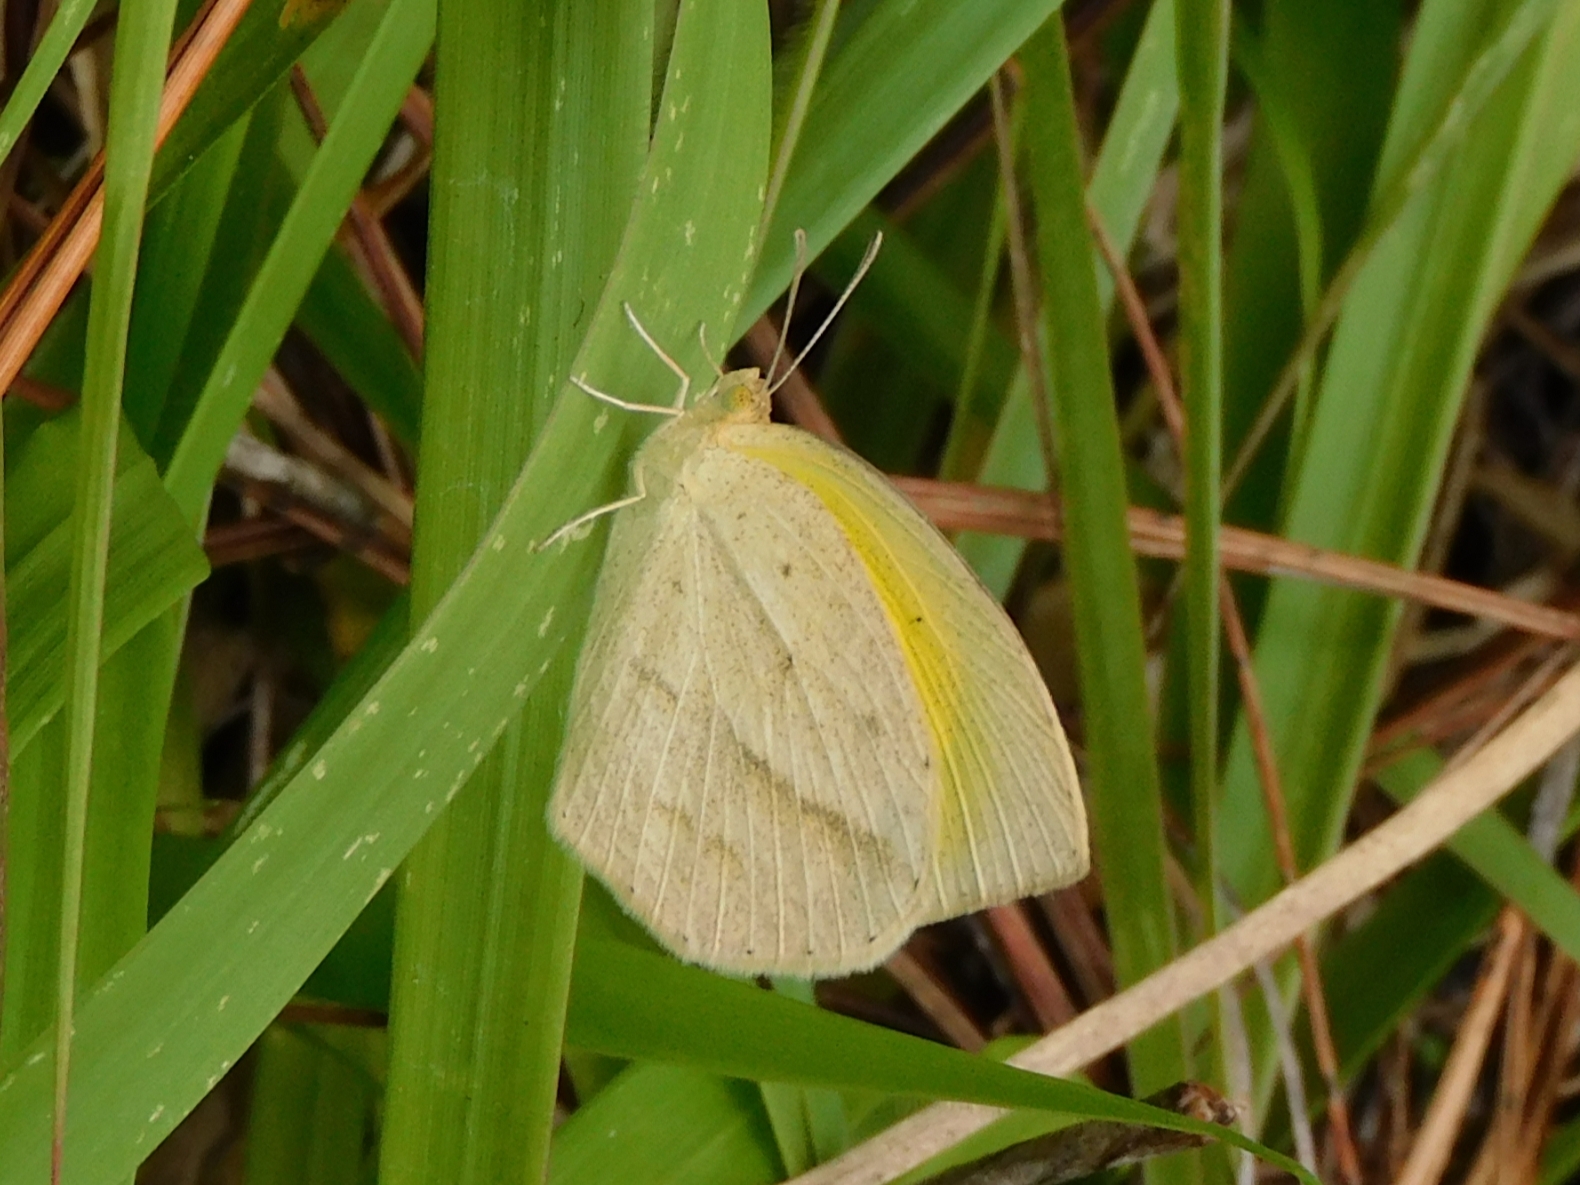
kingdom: Animalia
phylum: Arthropoda
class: Insecta
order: Lepidoptera
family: Pieridae
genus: Eurema
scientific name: Eurema laeta
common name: Spotless grass yellow
